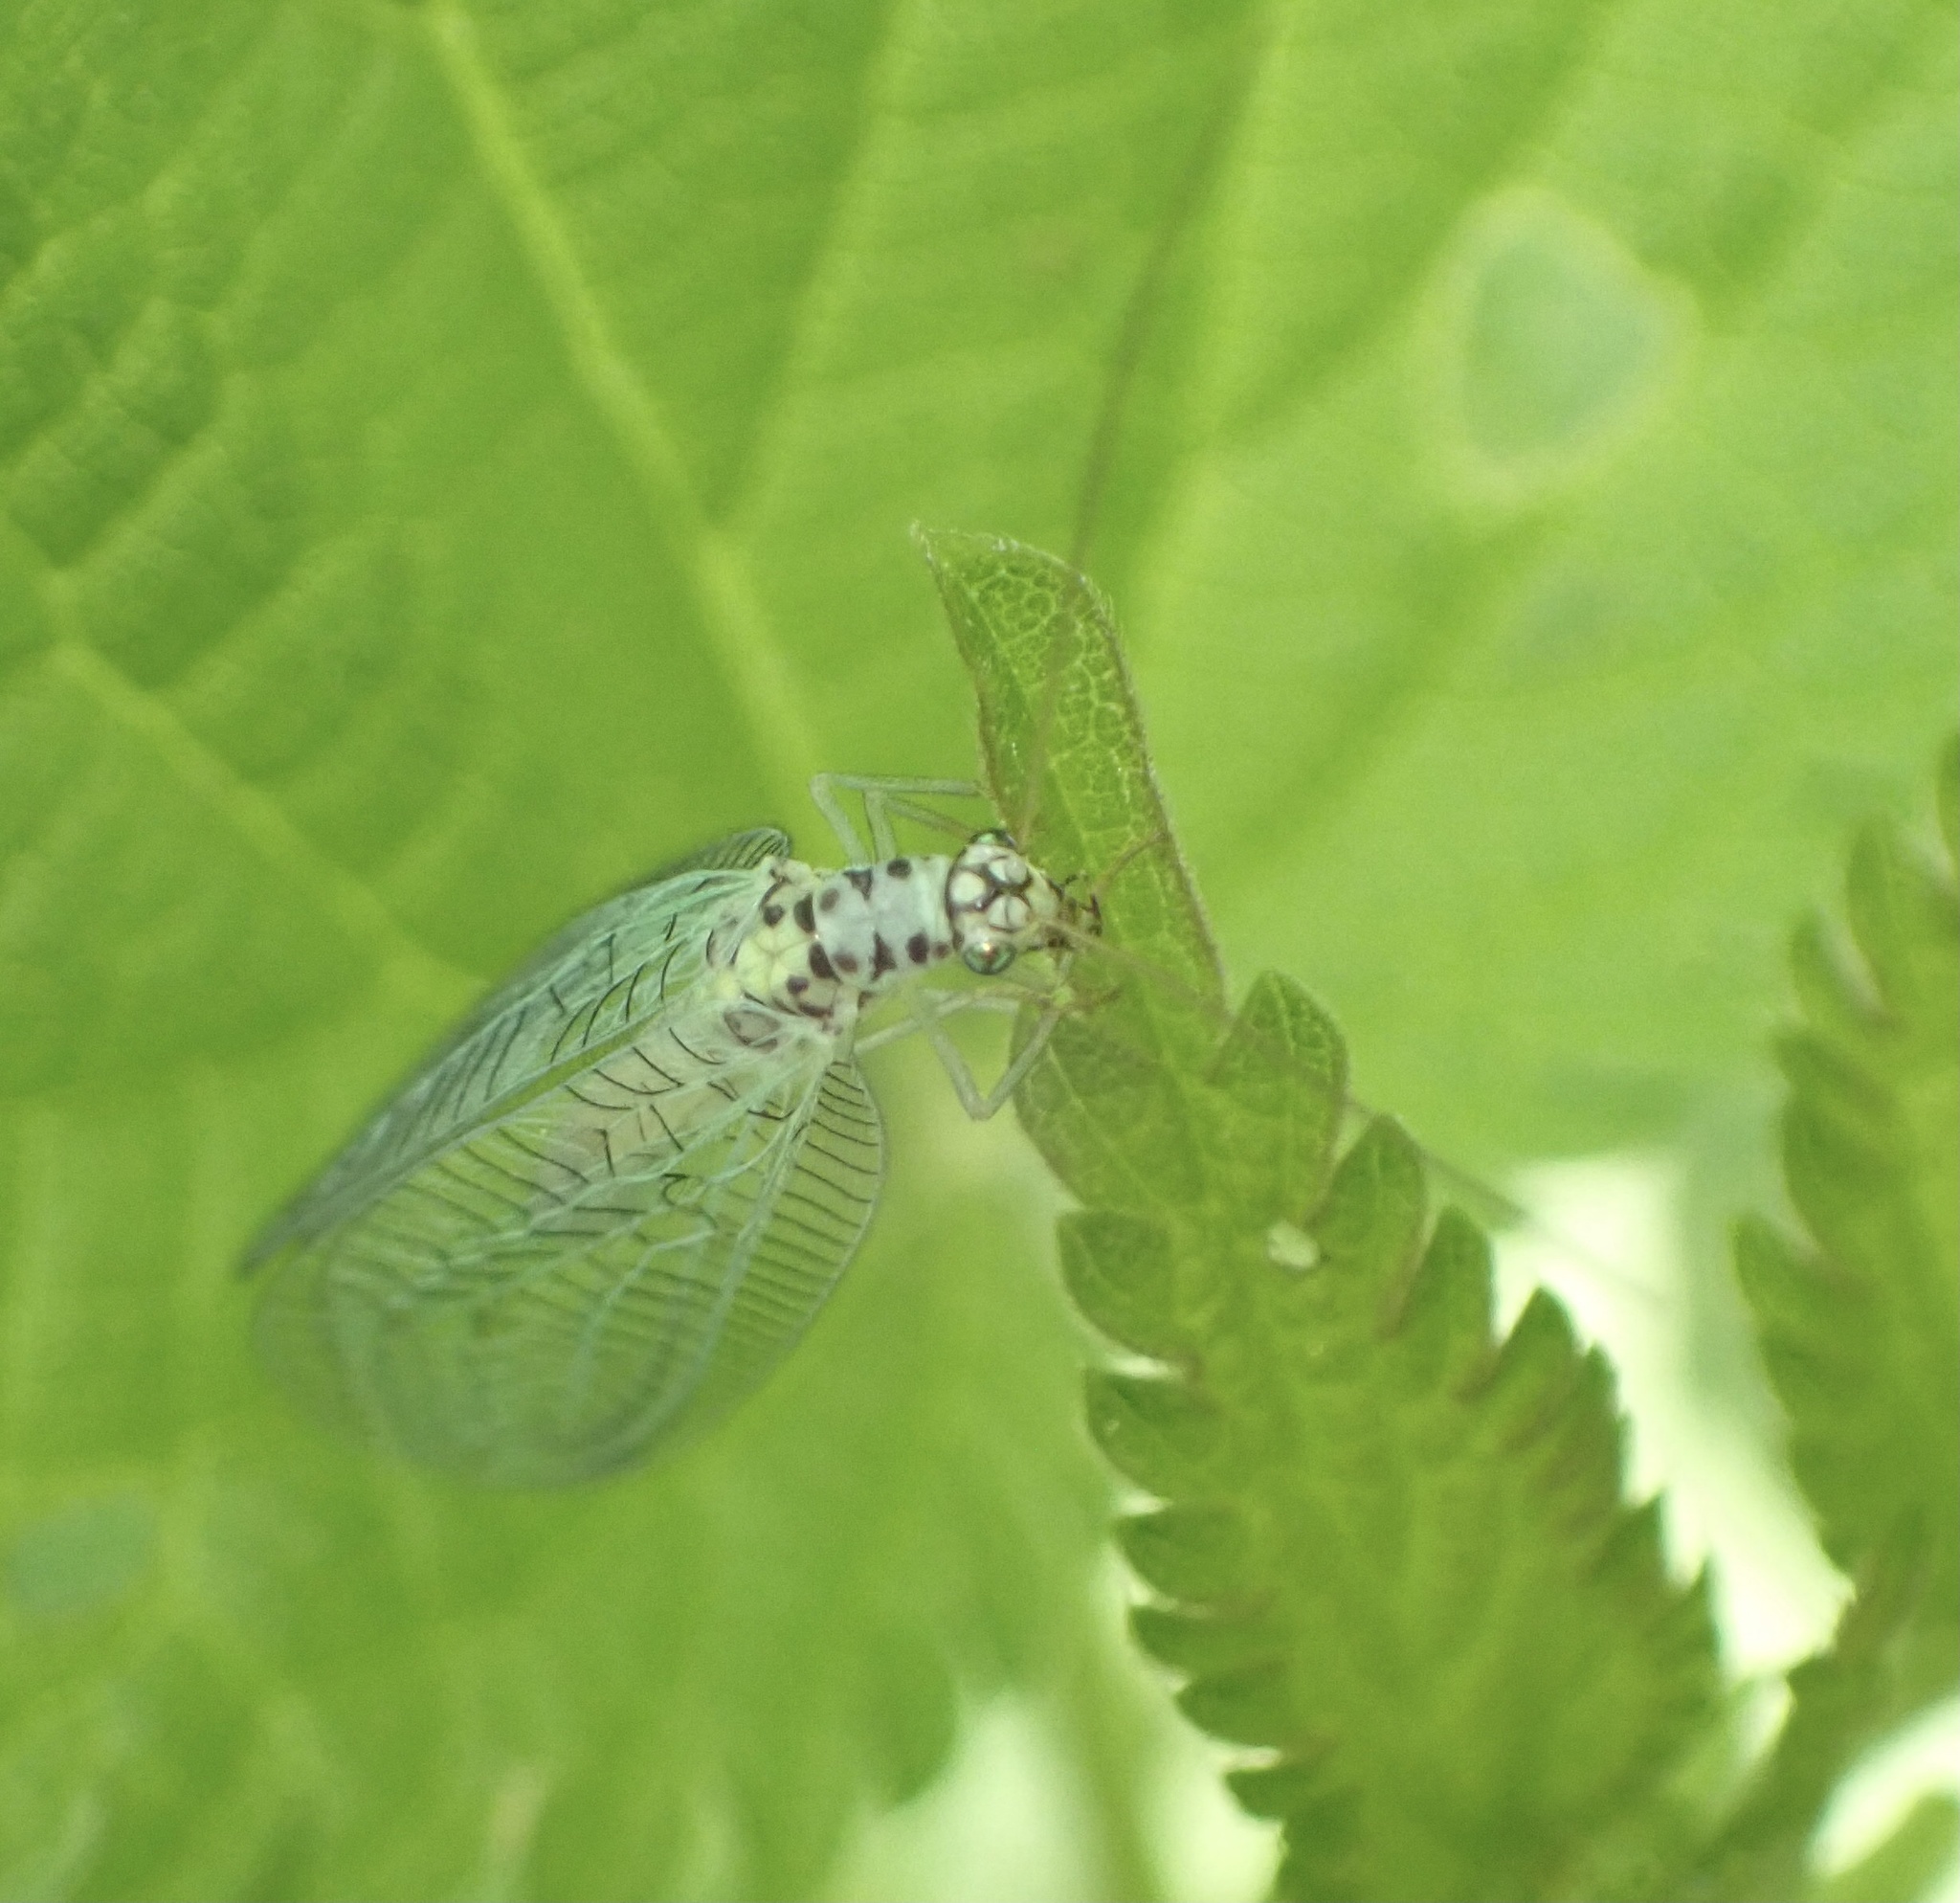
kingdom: Animalia
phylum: Arthropoda
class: Insecta
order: Neuroptera
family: Chrysopidae
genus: Chrysopa
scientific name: Chrysopa perla
